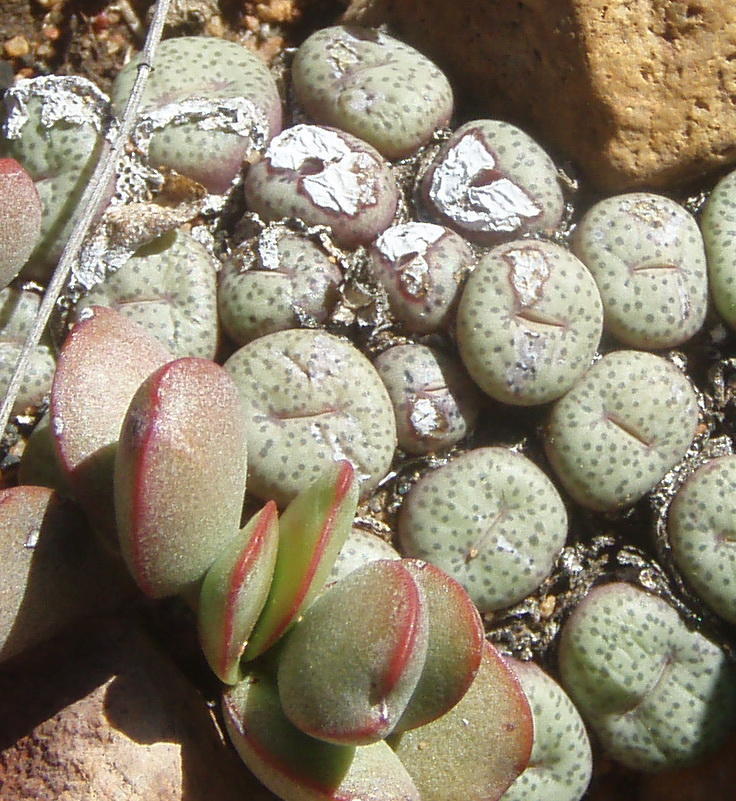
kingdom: Plantae
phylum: Tracheophyta
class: Magnoliopsida
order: Caryophyllales
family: Aizoaceae
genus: Conophytum
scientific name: Conophytum truncatum
